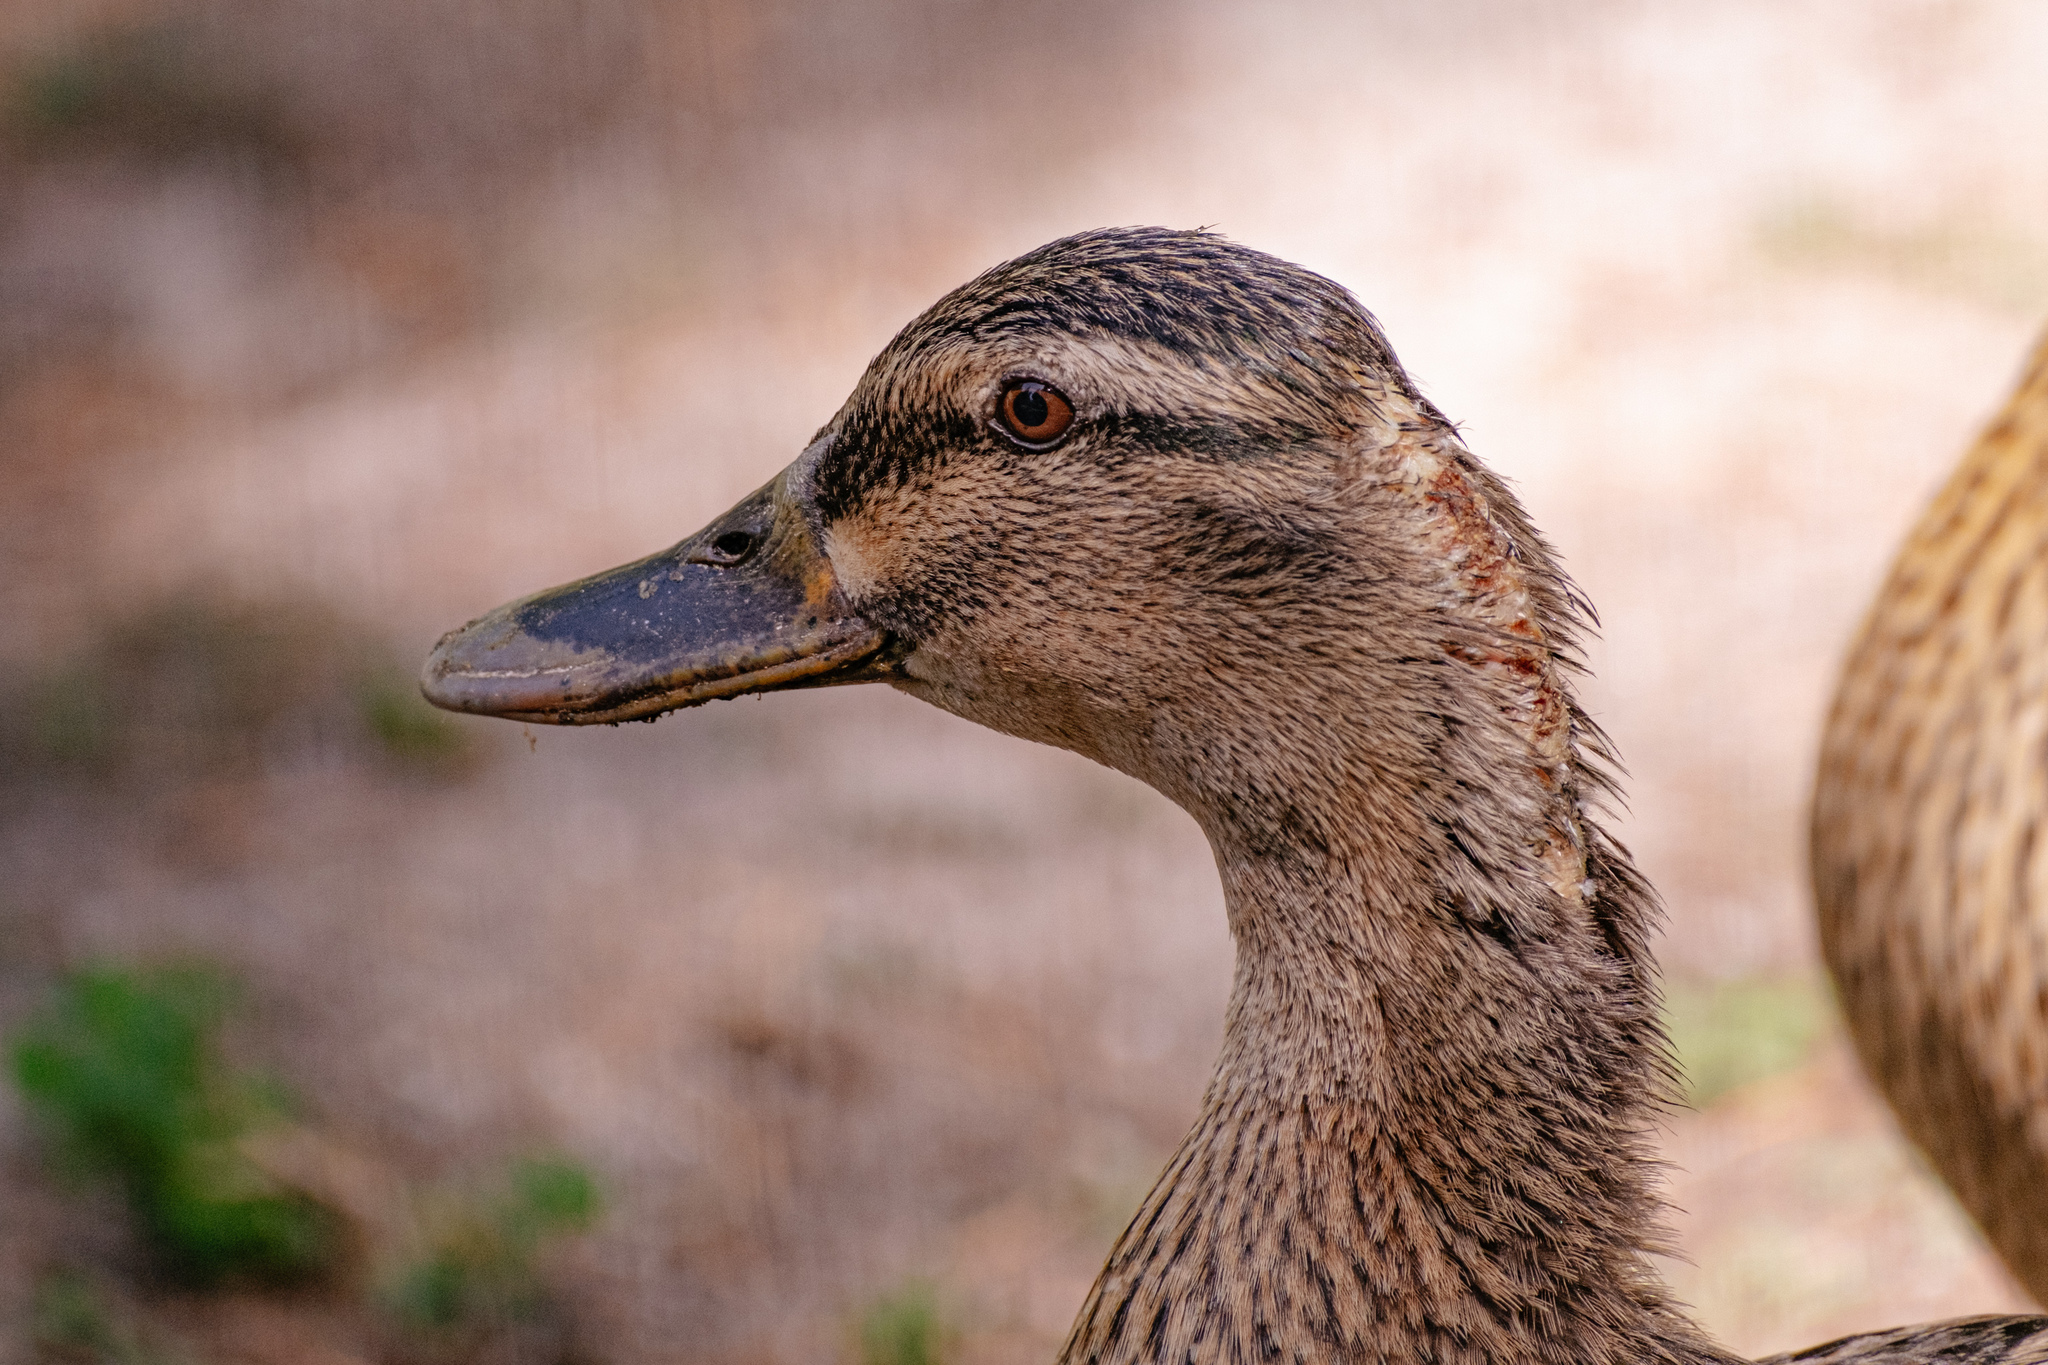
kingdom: Animalia
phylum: Chordata
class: Aves
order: Anseriformes
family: Anatidae
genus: Anas
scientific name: Anas platyrhynchos
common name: Mallard
